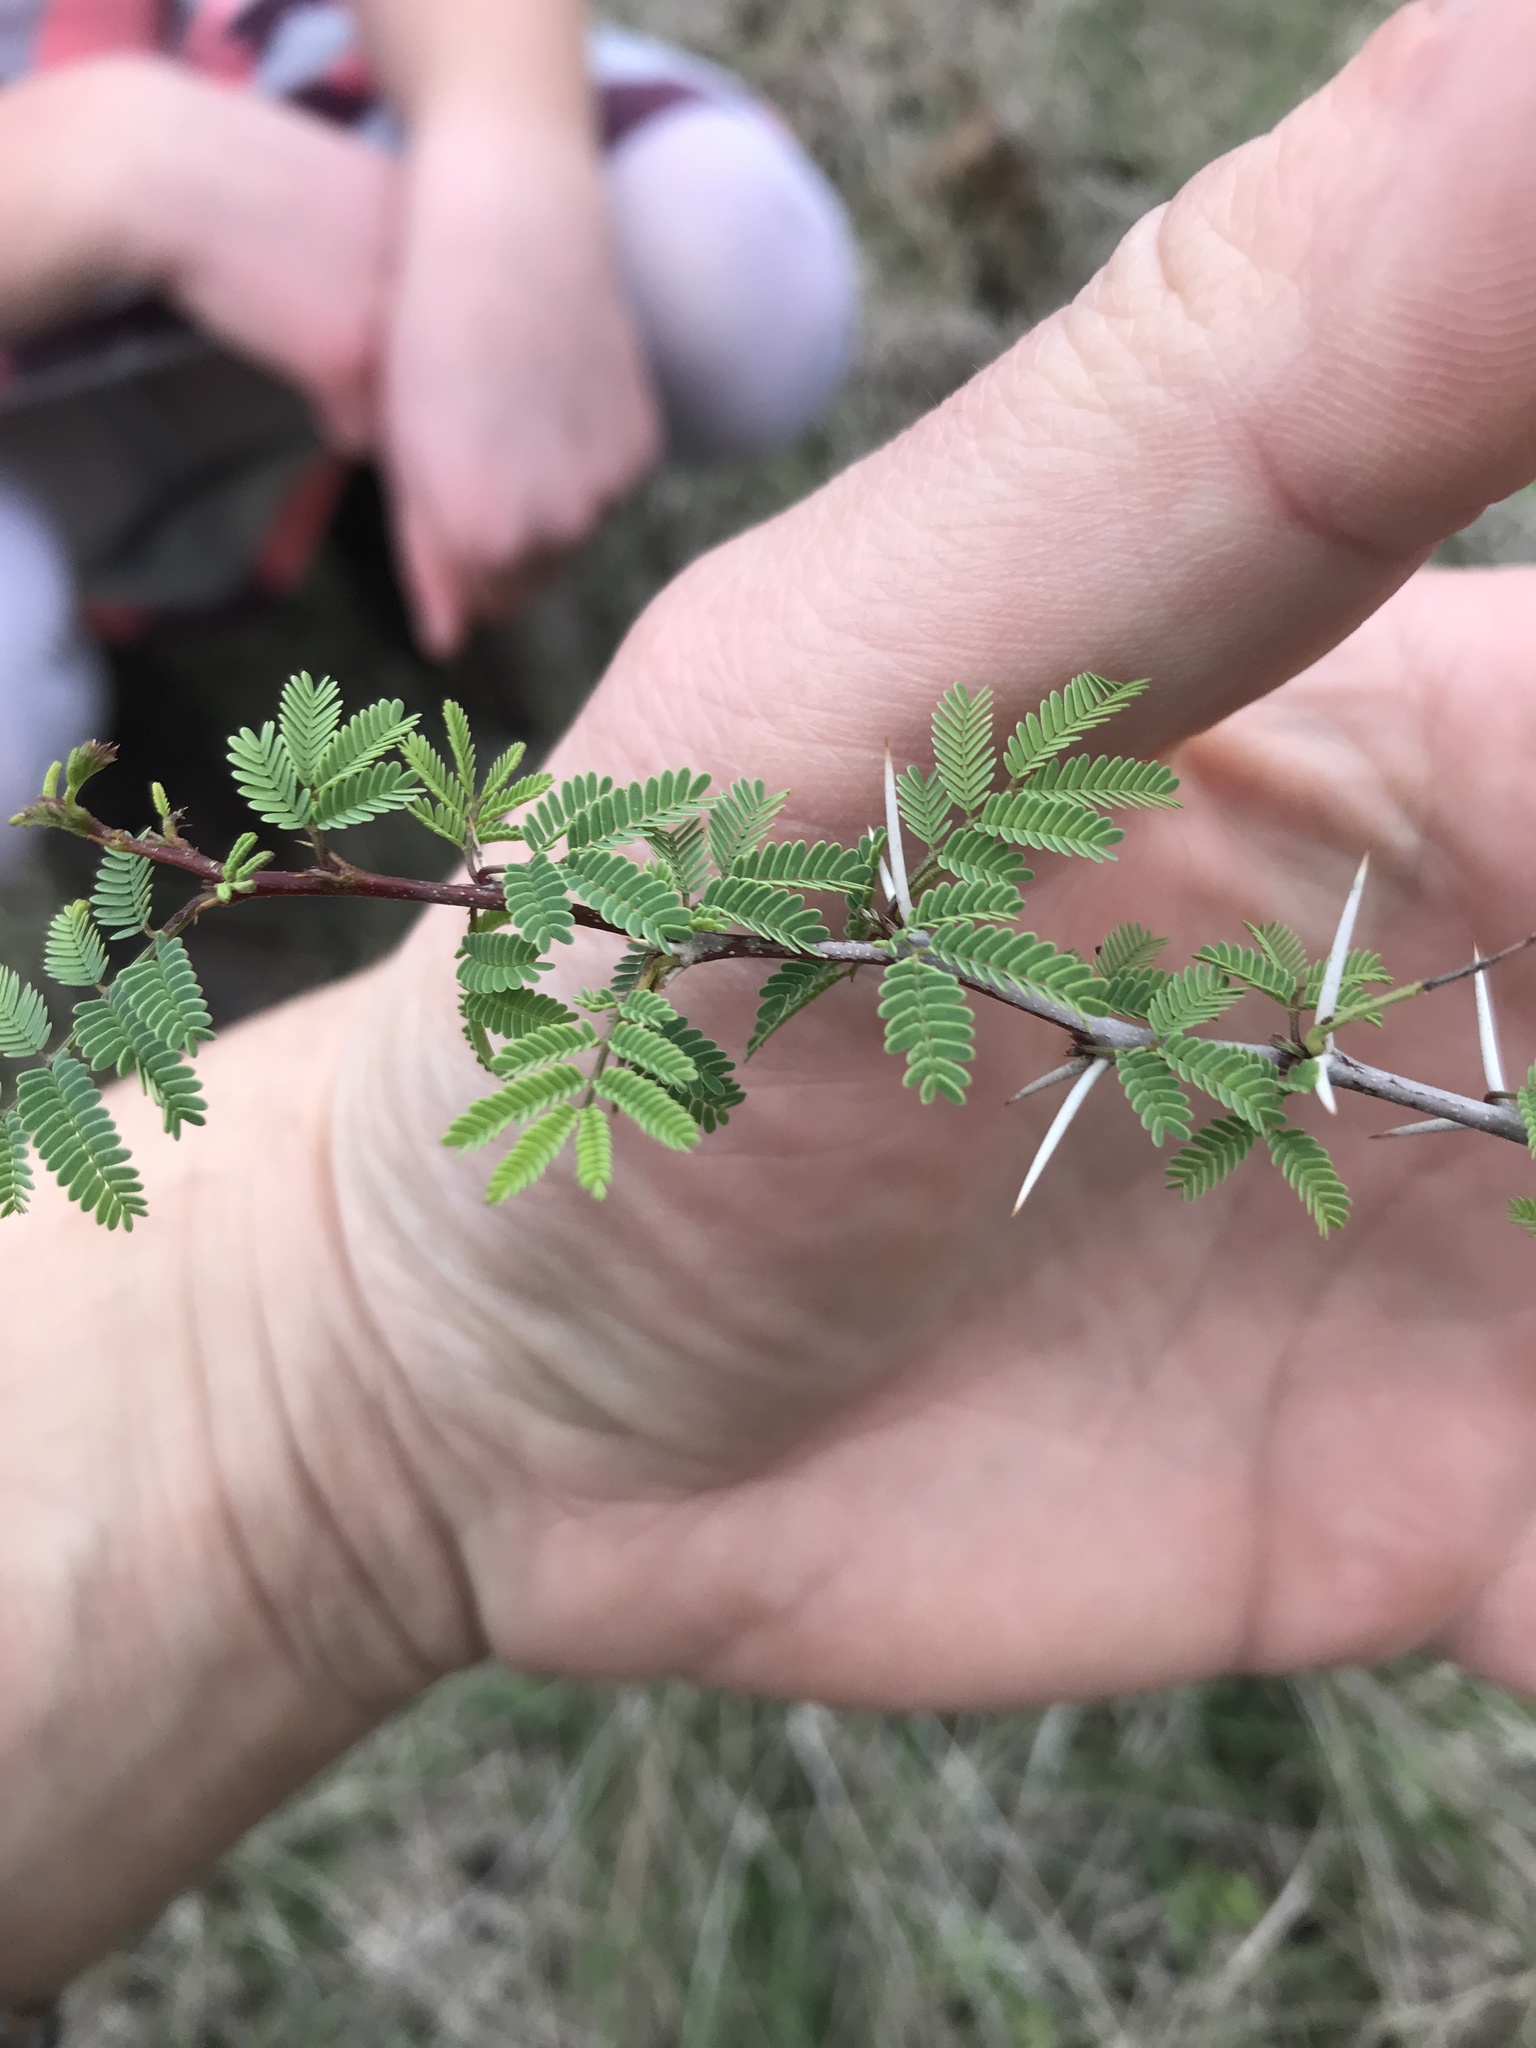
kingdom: Plantae
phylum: Tracheophyta
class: Magnoliopsida
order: Fabales
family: Fabaceae
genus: Vachellia
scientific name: Vachellia farnesiana
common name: Sweet acacia
